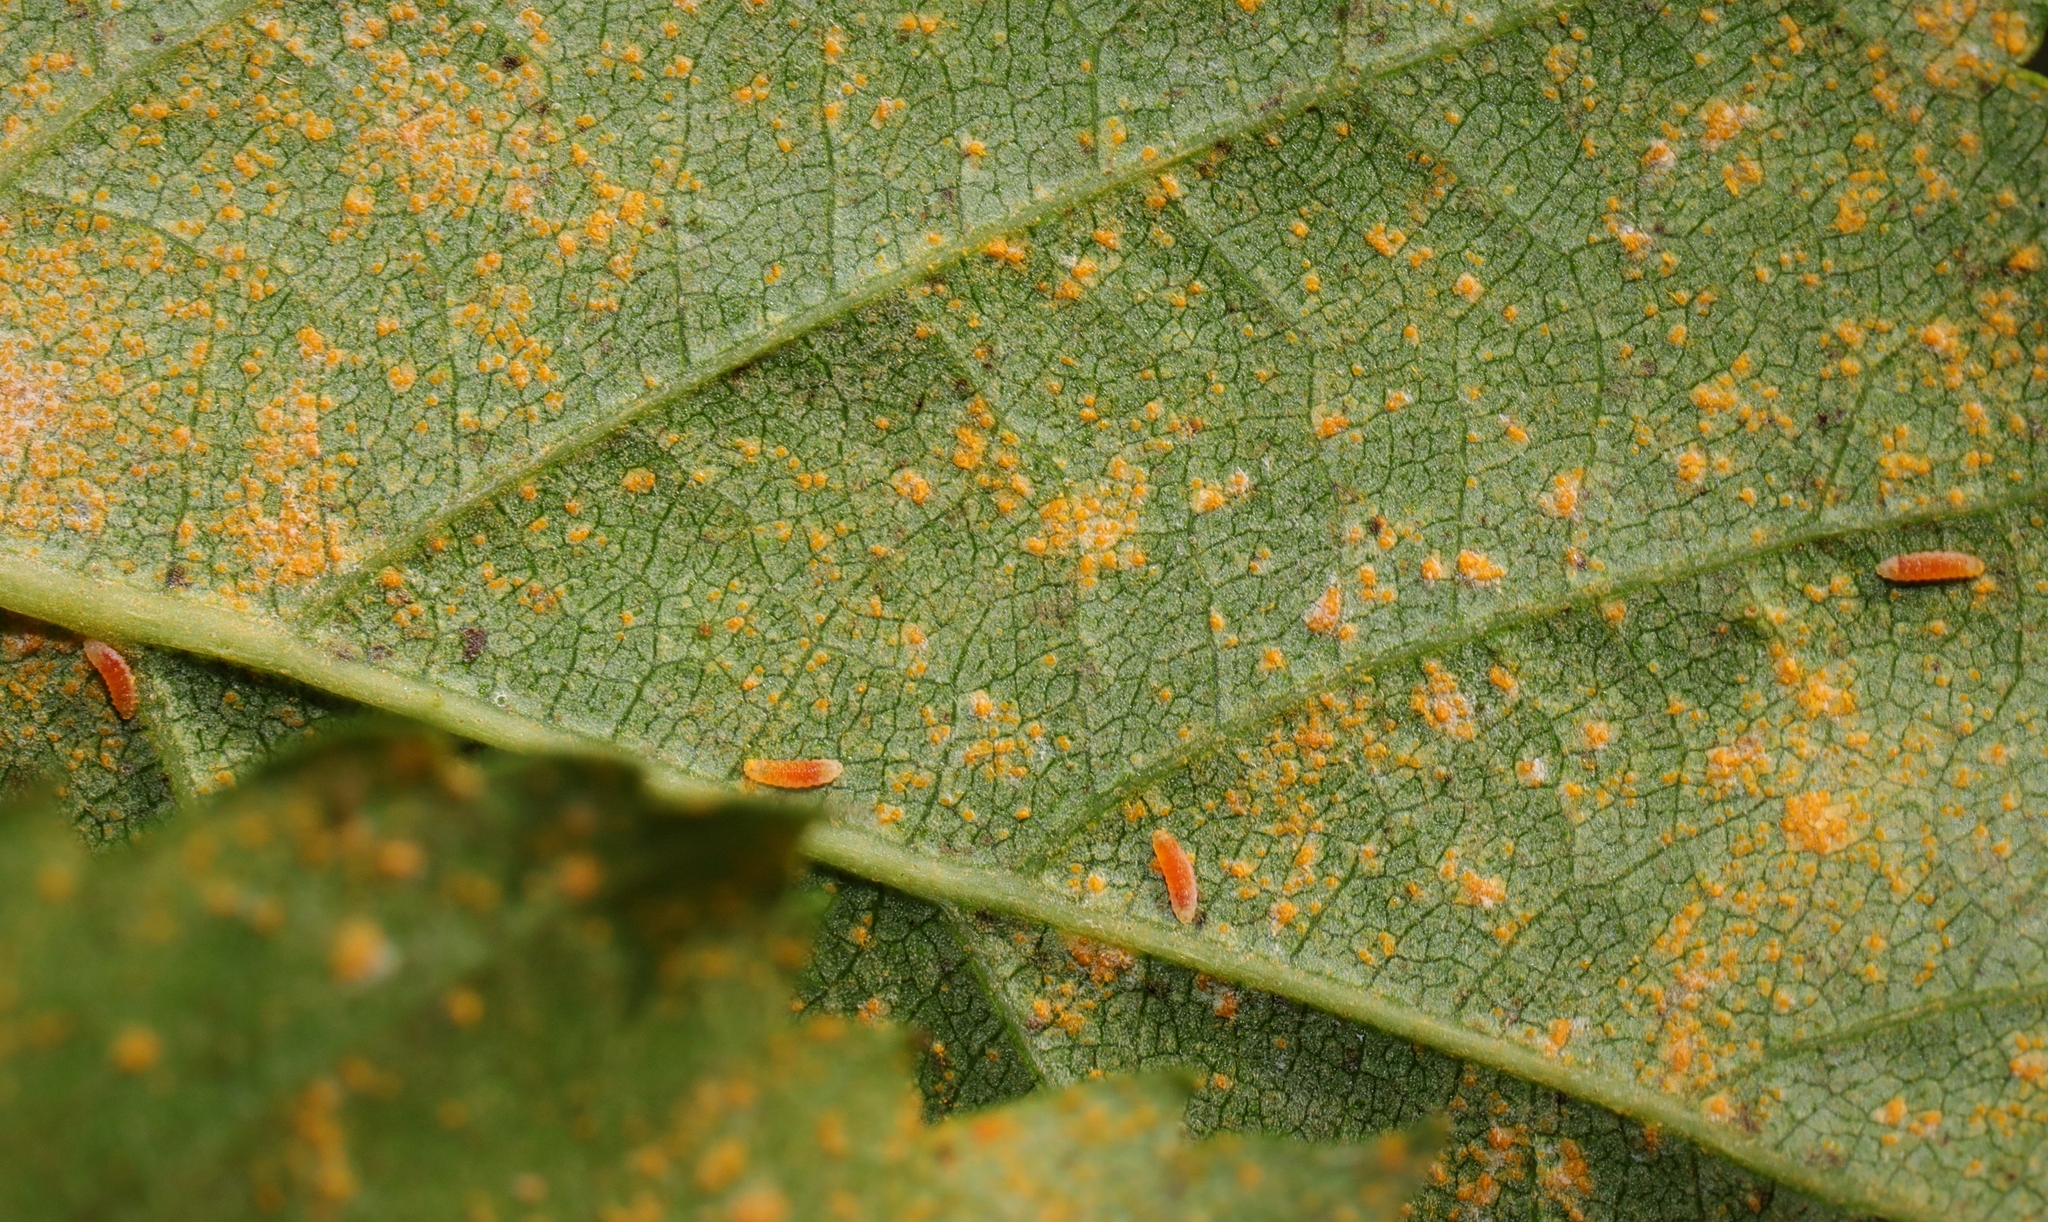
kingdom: Animalia
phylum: Arthropoda
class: Insecta
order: Diptera
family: Cecidomyiidae
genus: Mycodiplosis
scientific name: Mycodiplosis
